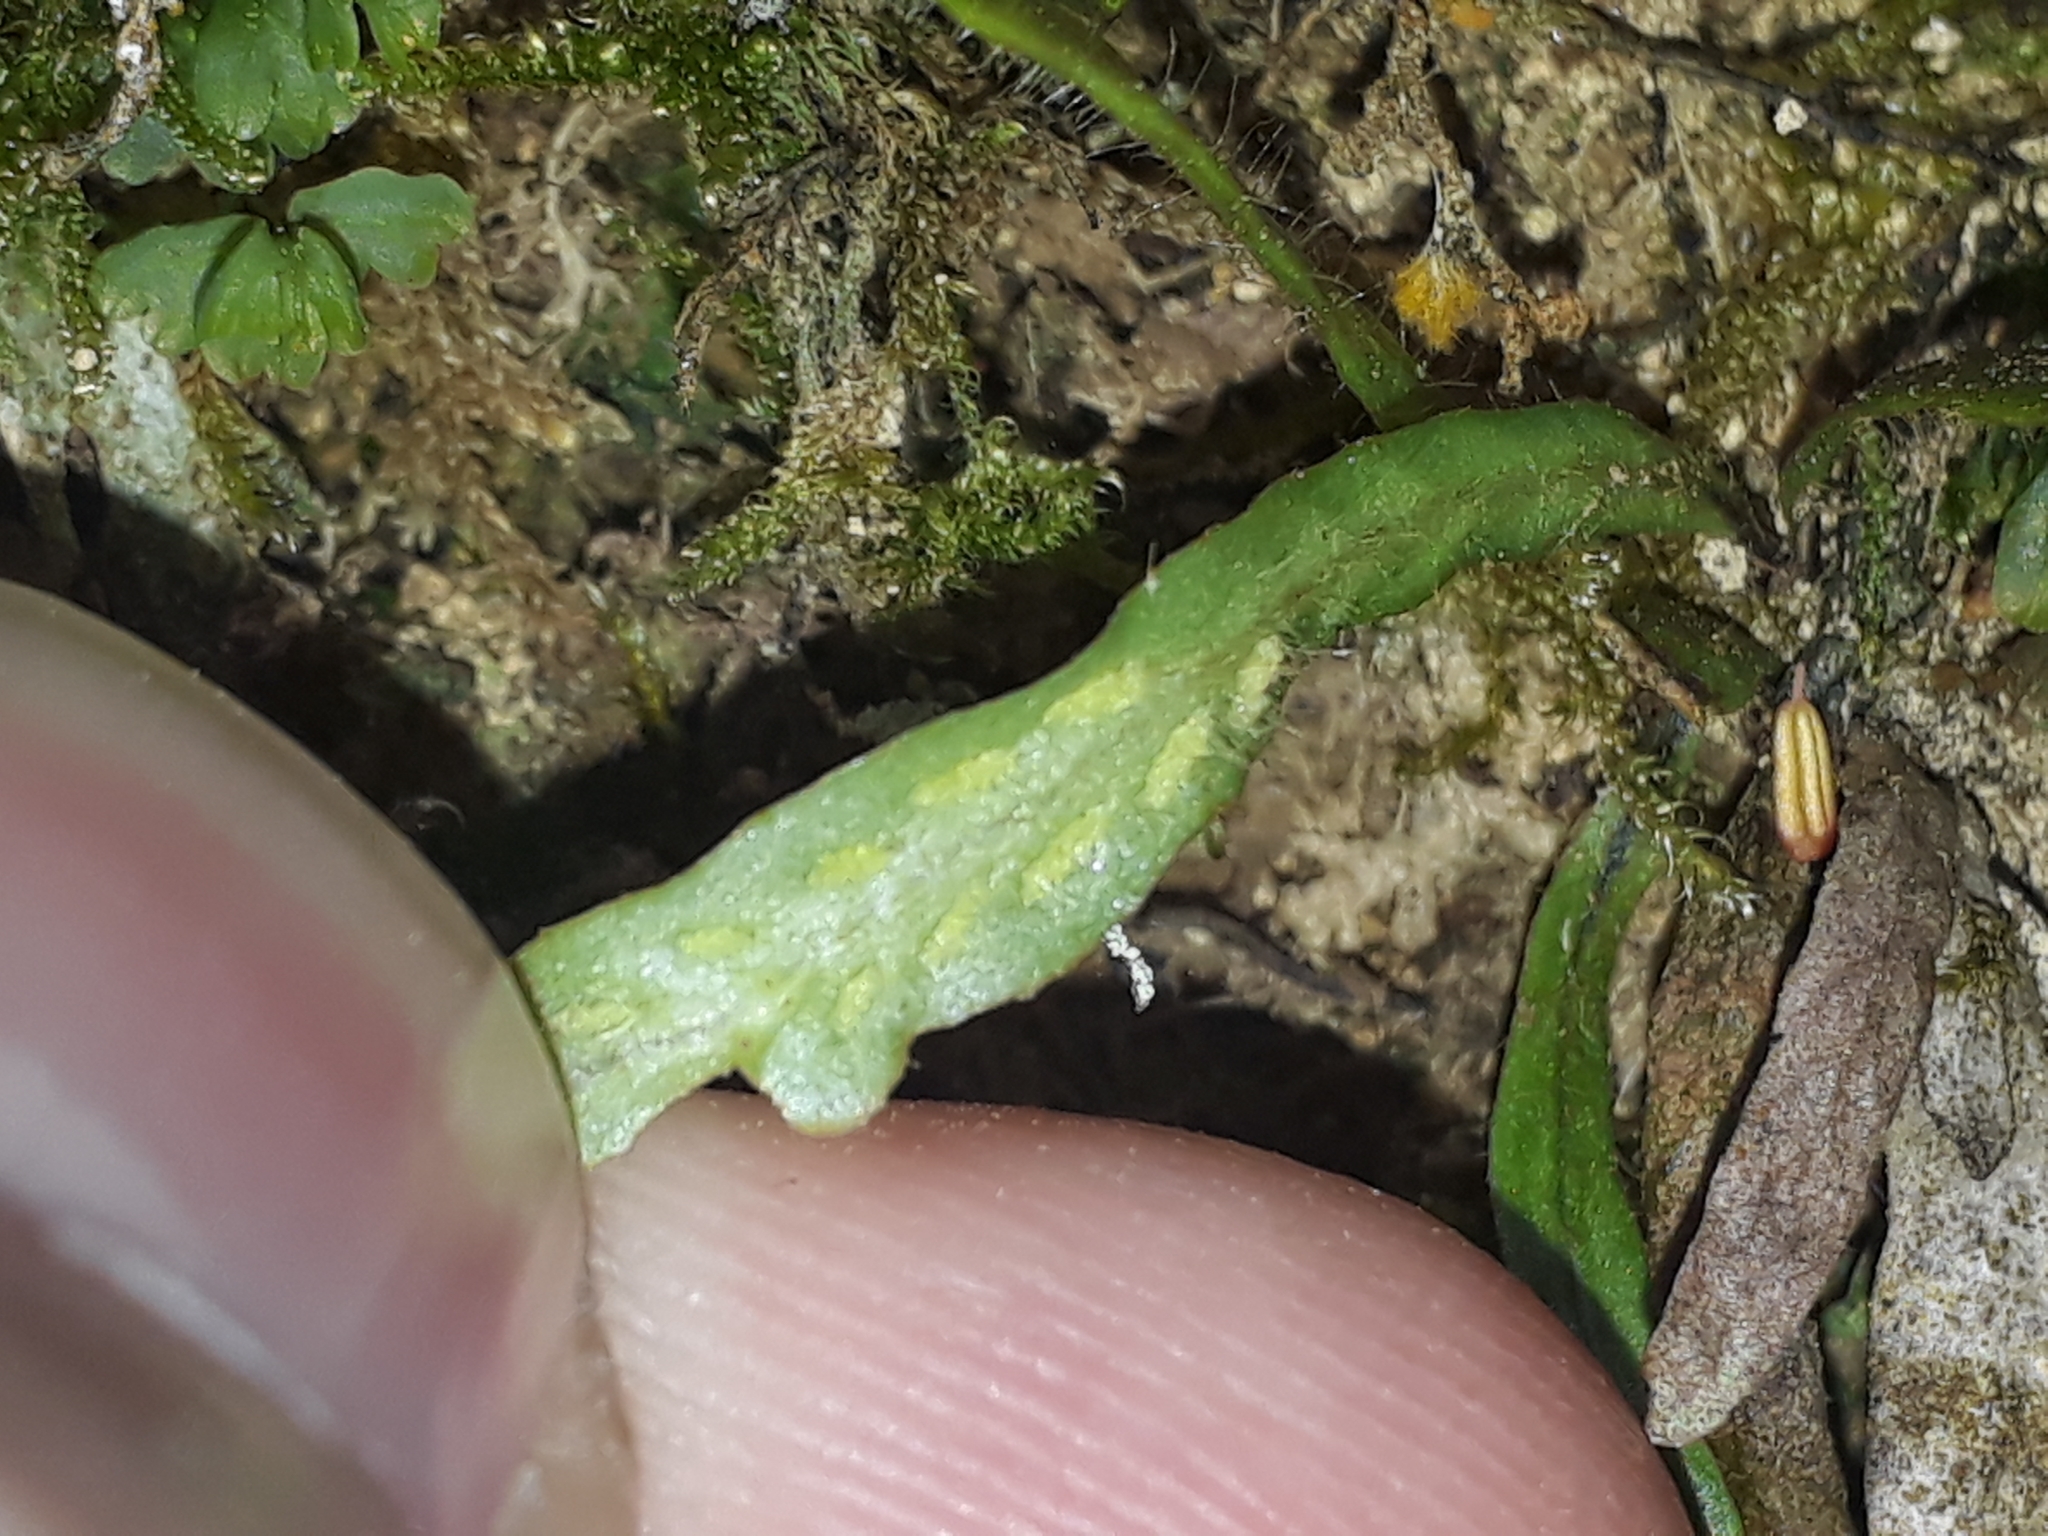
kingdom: Plantae
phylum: Tracheophyta
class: Polypodiopsida
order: Polypodiales
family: Polypodiaceae
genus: Notogrammitis
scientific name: Notogrammitis ciliata
